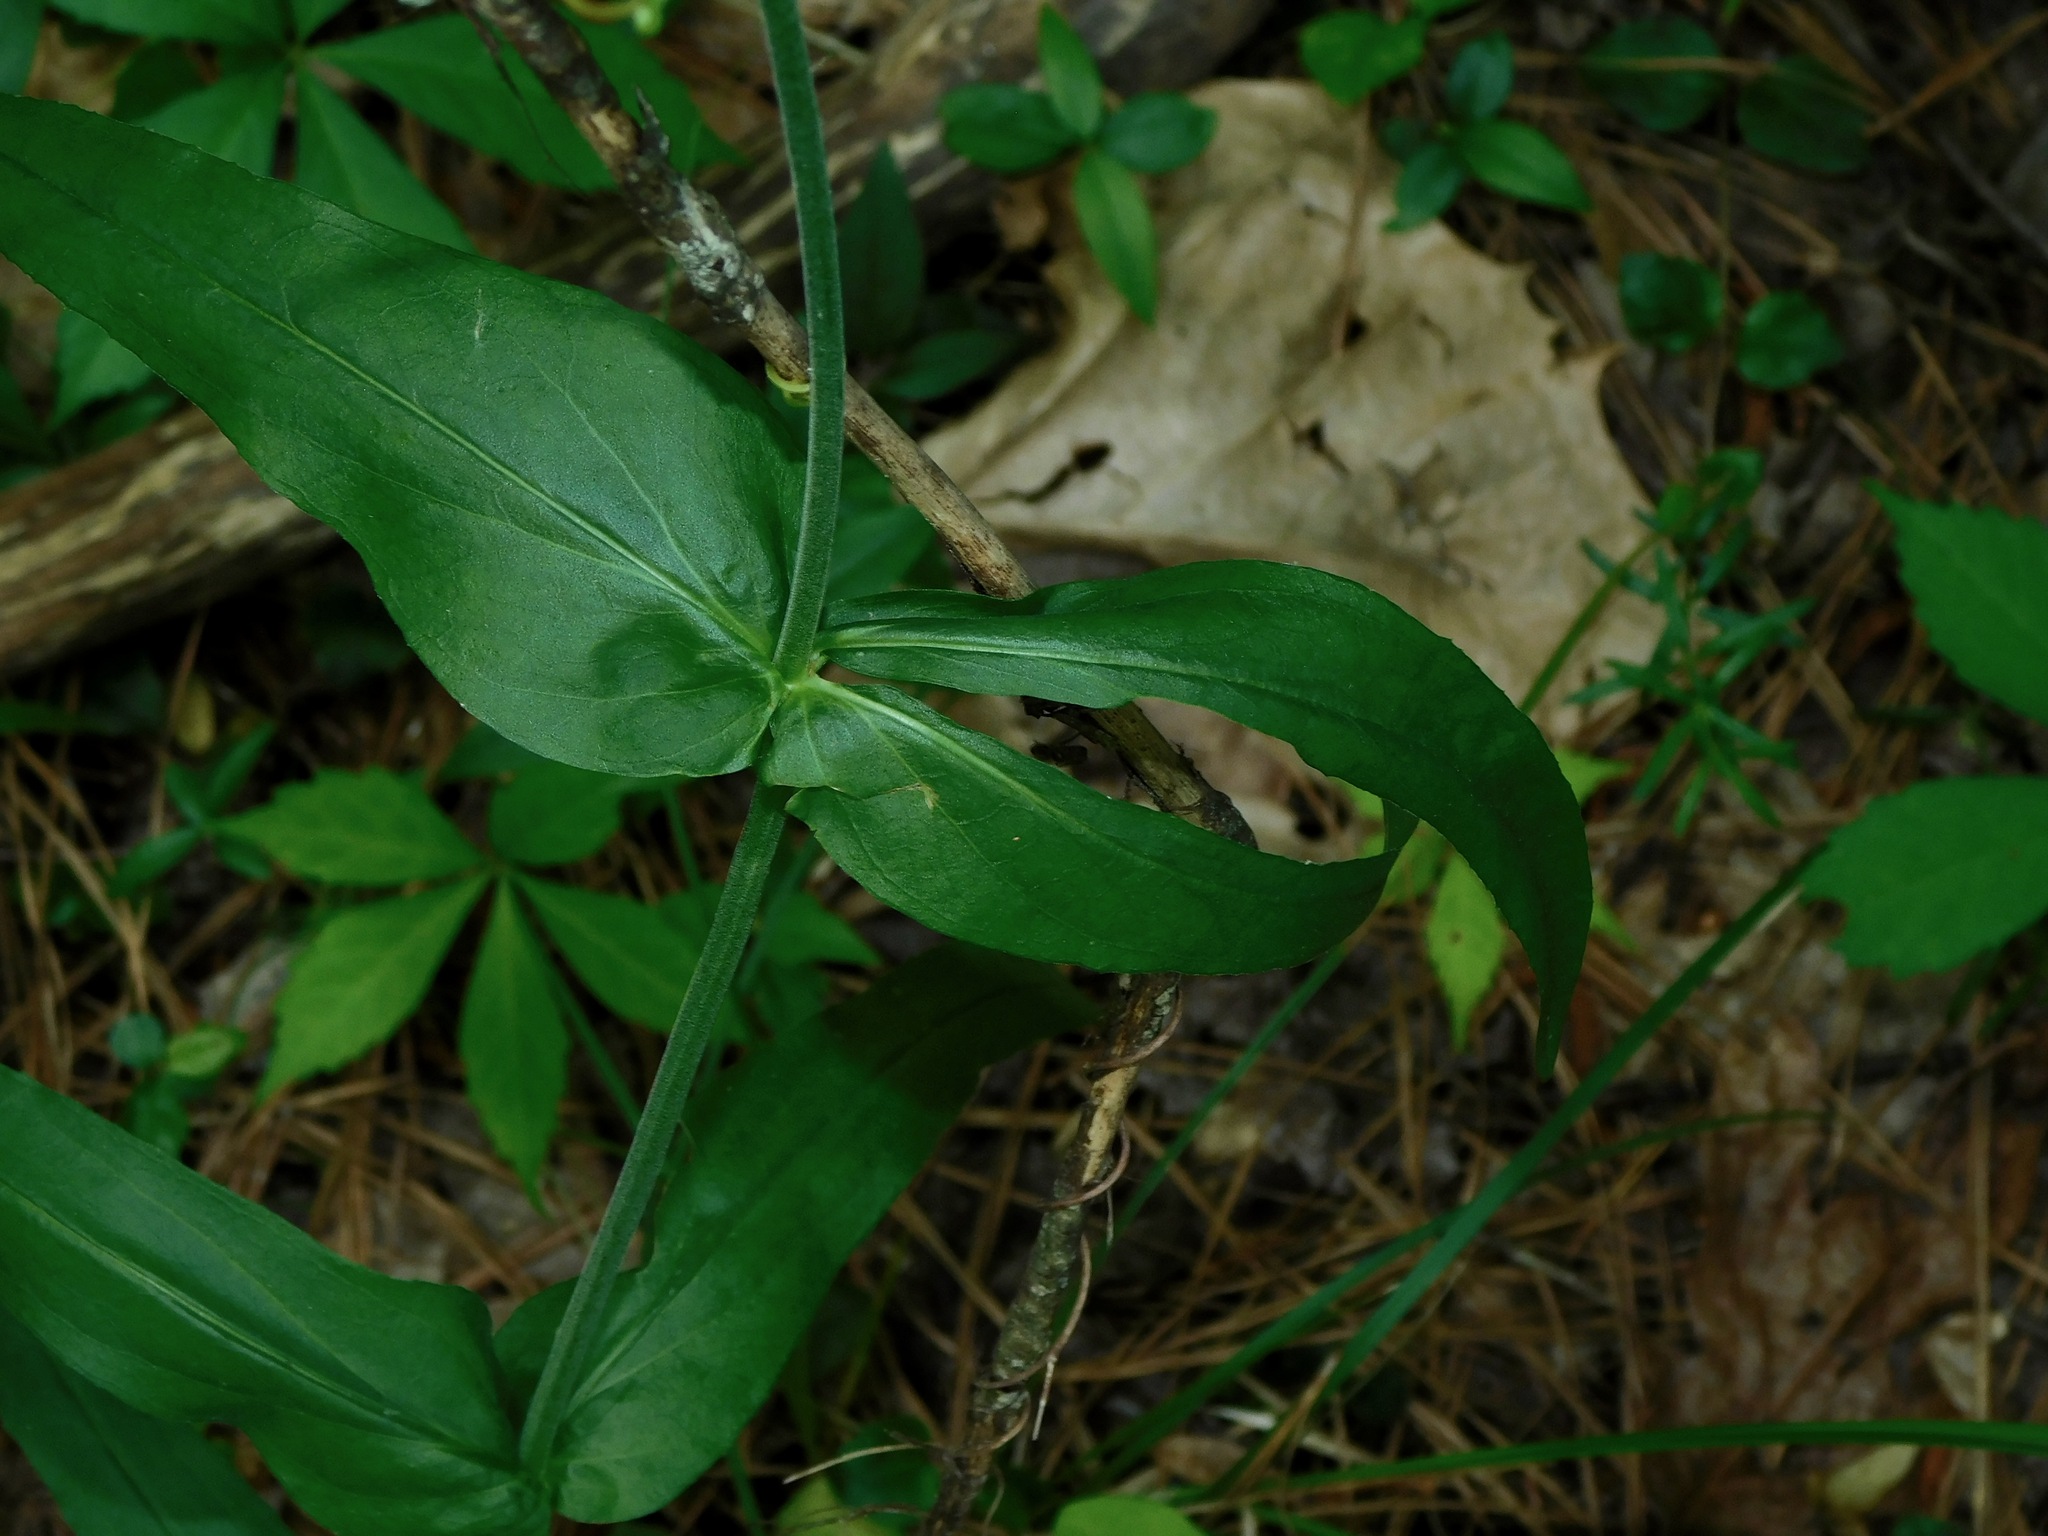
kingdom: Plantae
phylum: Tracheophyta
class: Magnoliopsida
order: Lamiales
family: Plantaginaceae
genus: Penstemon
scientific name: Penstemon digitalis
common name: Foxglove beardtongue
